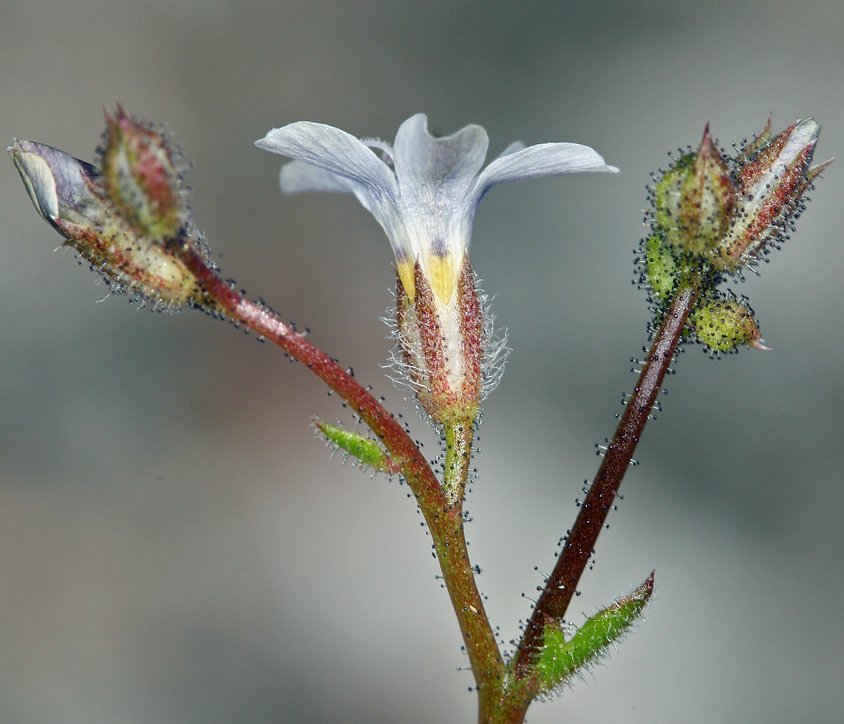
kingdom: Plantae
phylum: Tracheophyta
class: Magnoliopsida
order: Ericales
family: Polemoniaceae
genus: Gilia
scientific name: Gilia stellata
